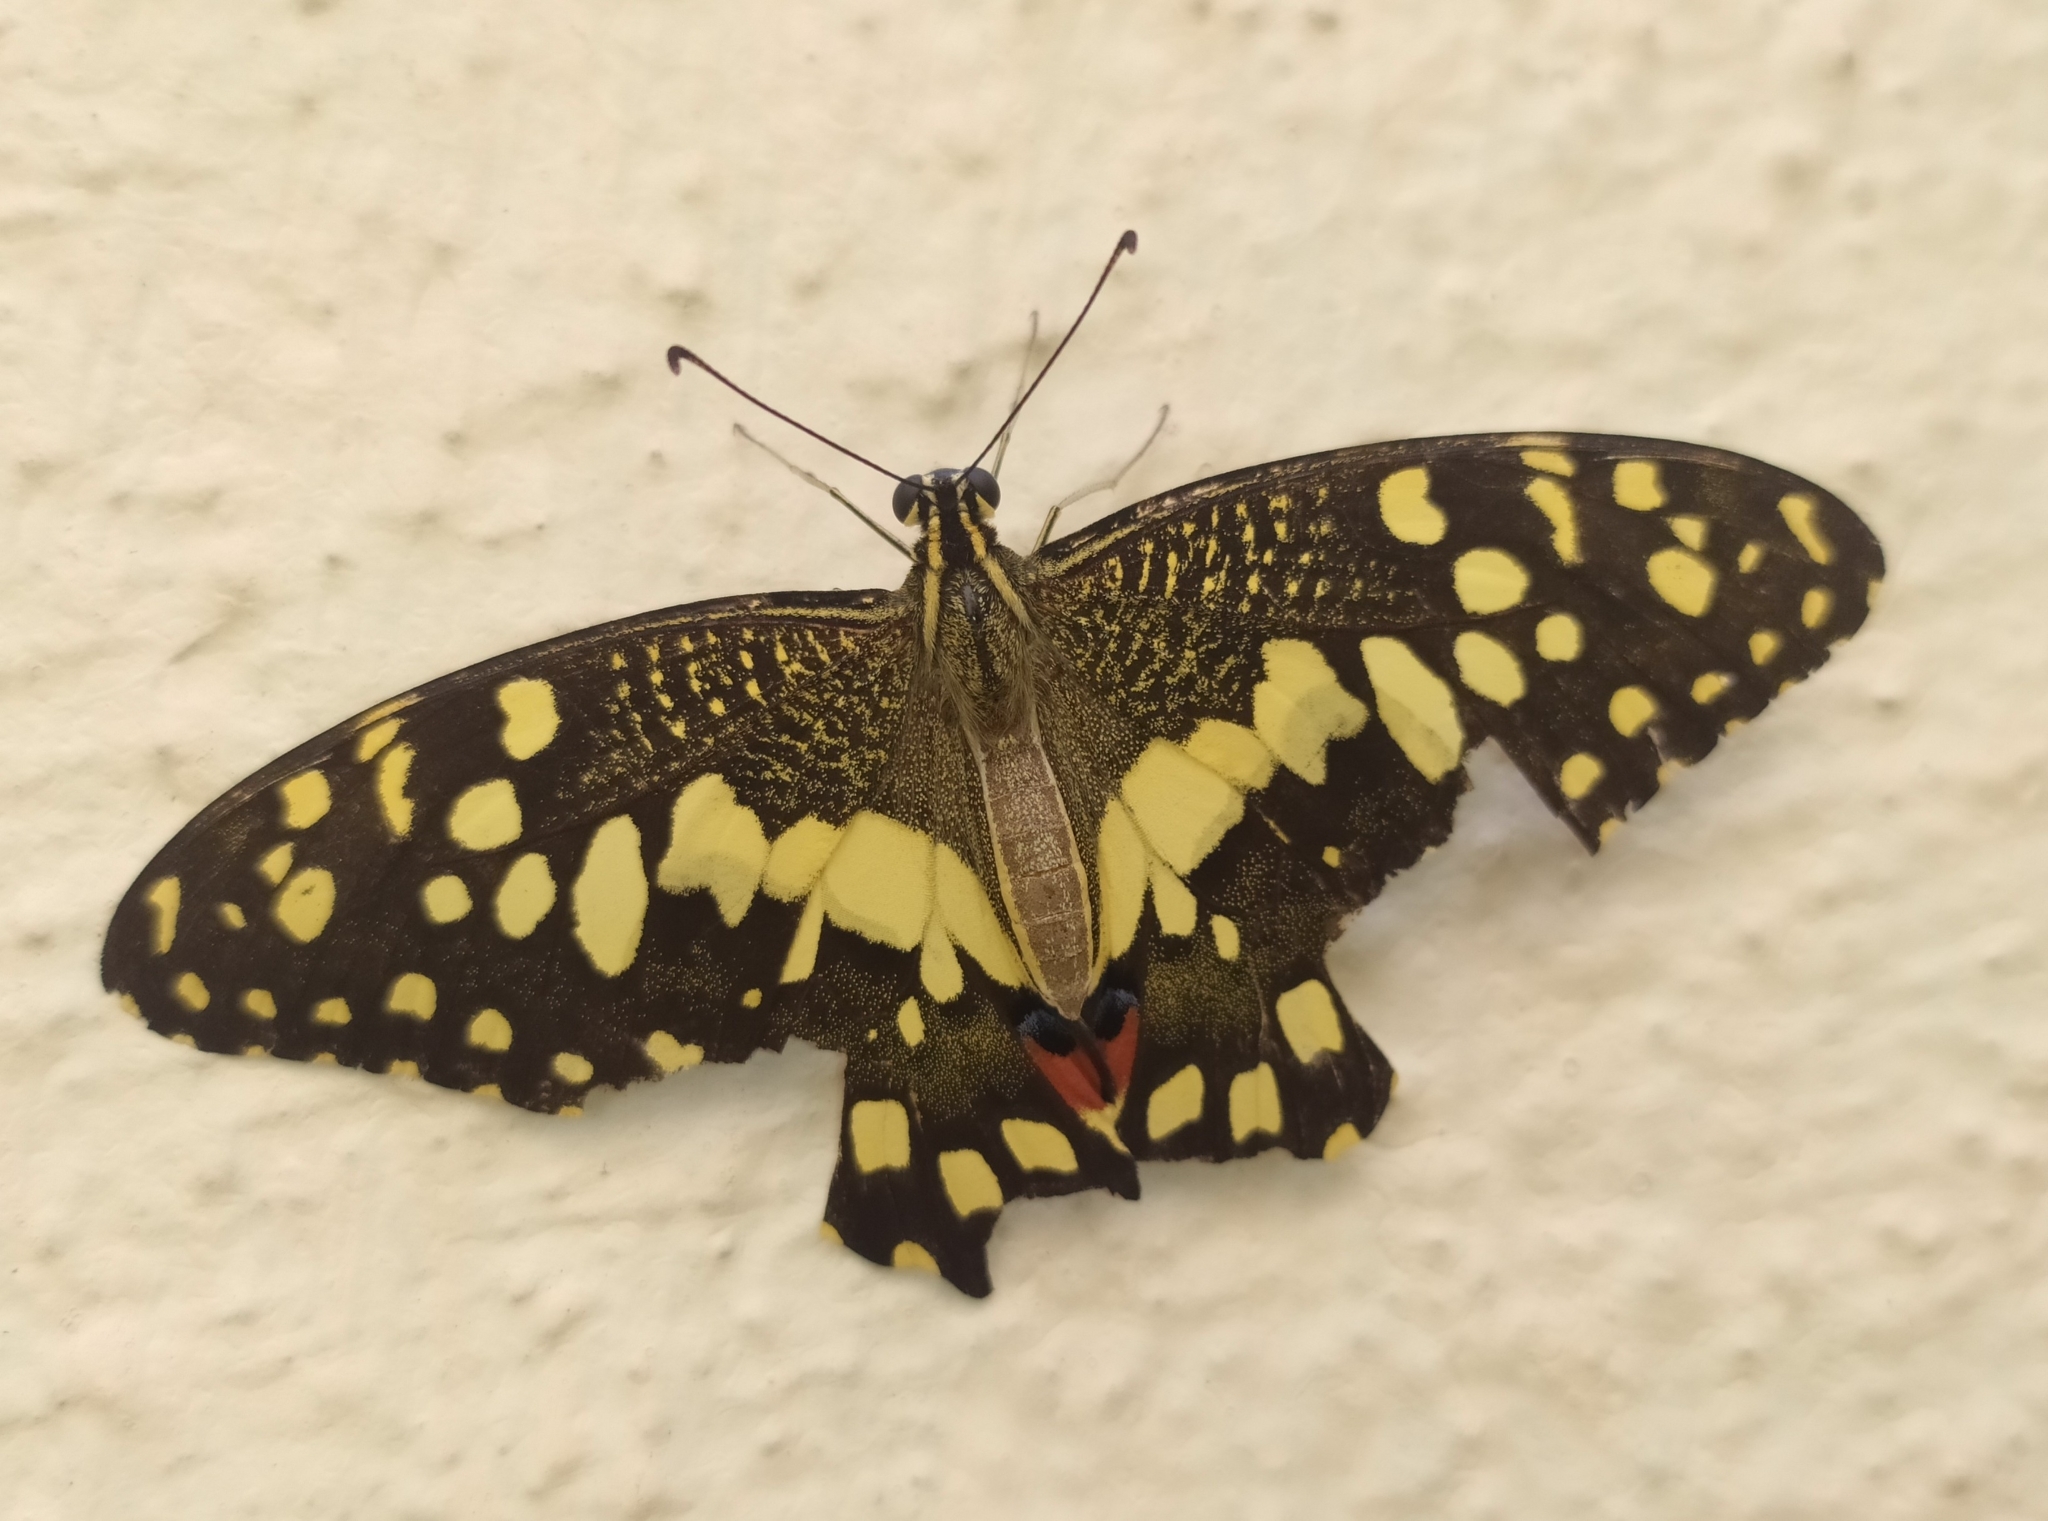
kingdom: Animalia
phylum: Arthropoda
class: Insecta
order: Lepidoptera
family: Papilionidae
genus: Papilio
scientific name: Papilio demoleus
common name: Lime butterfly
